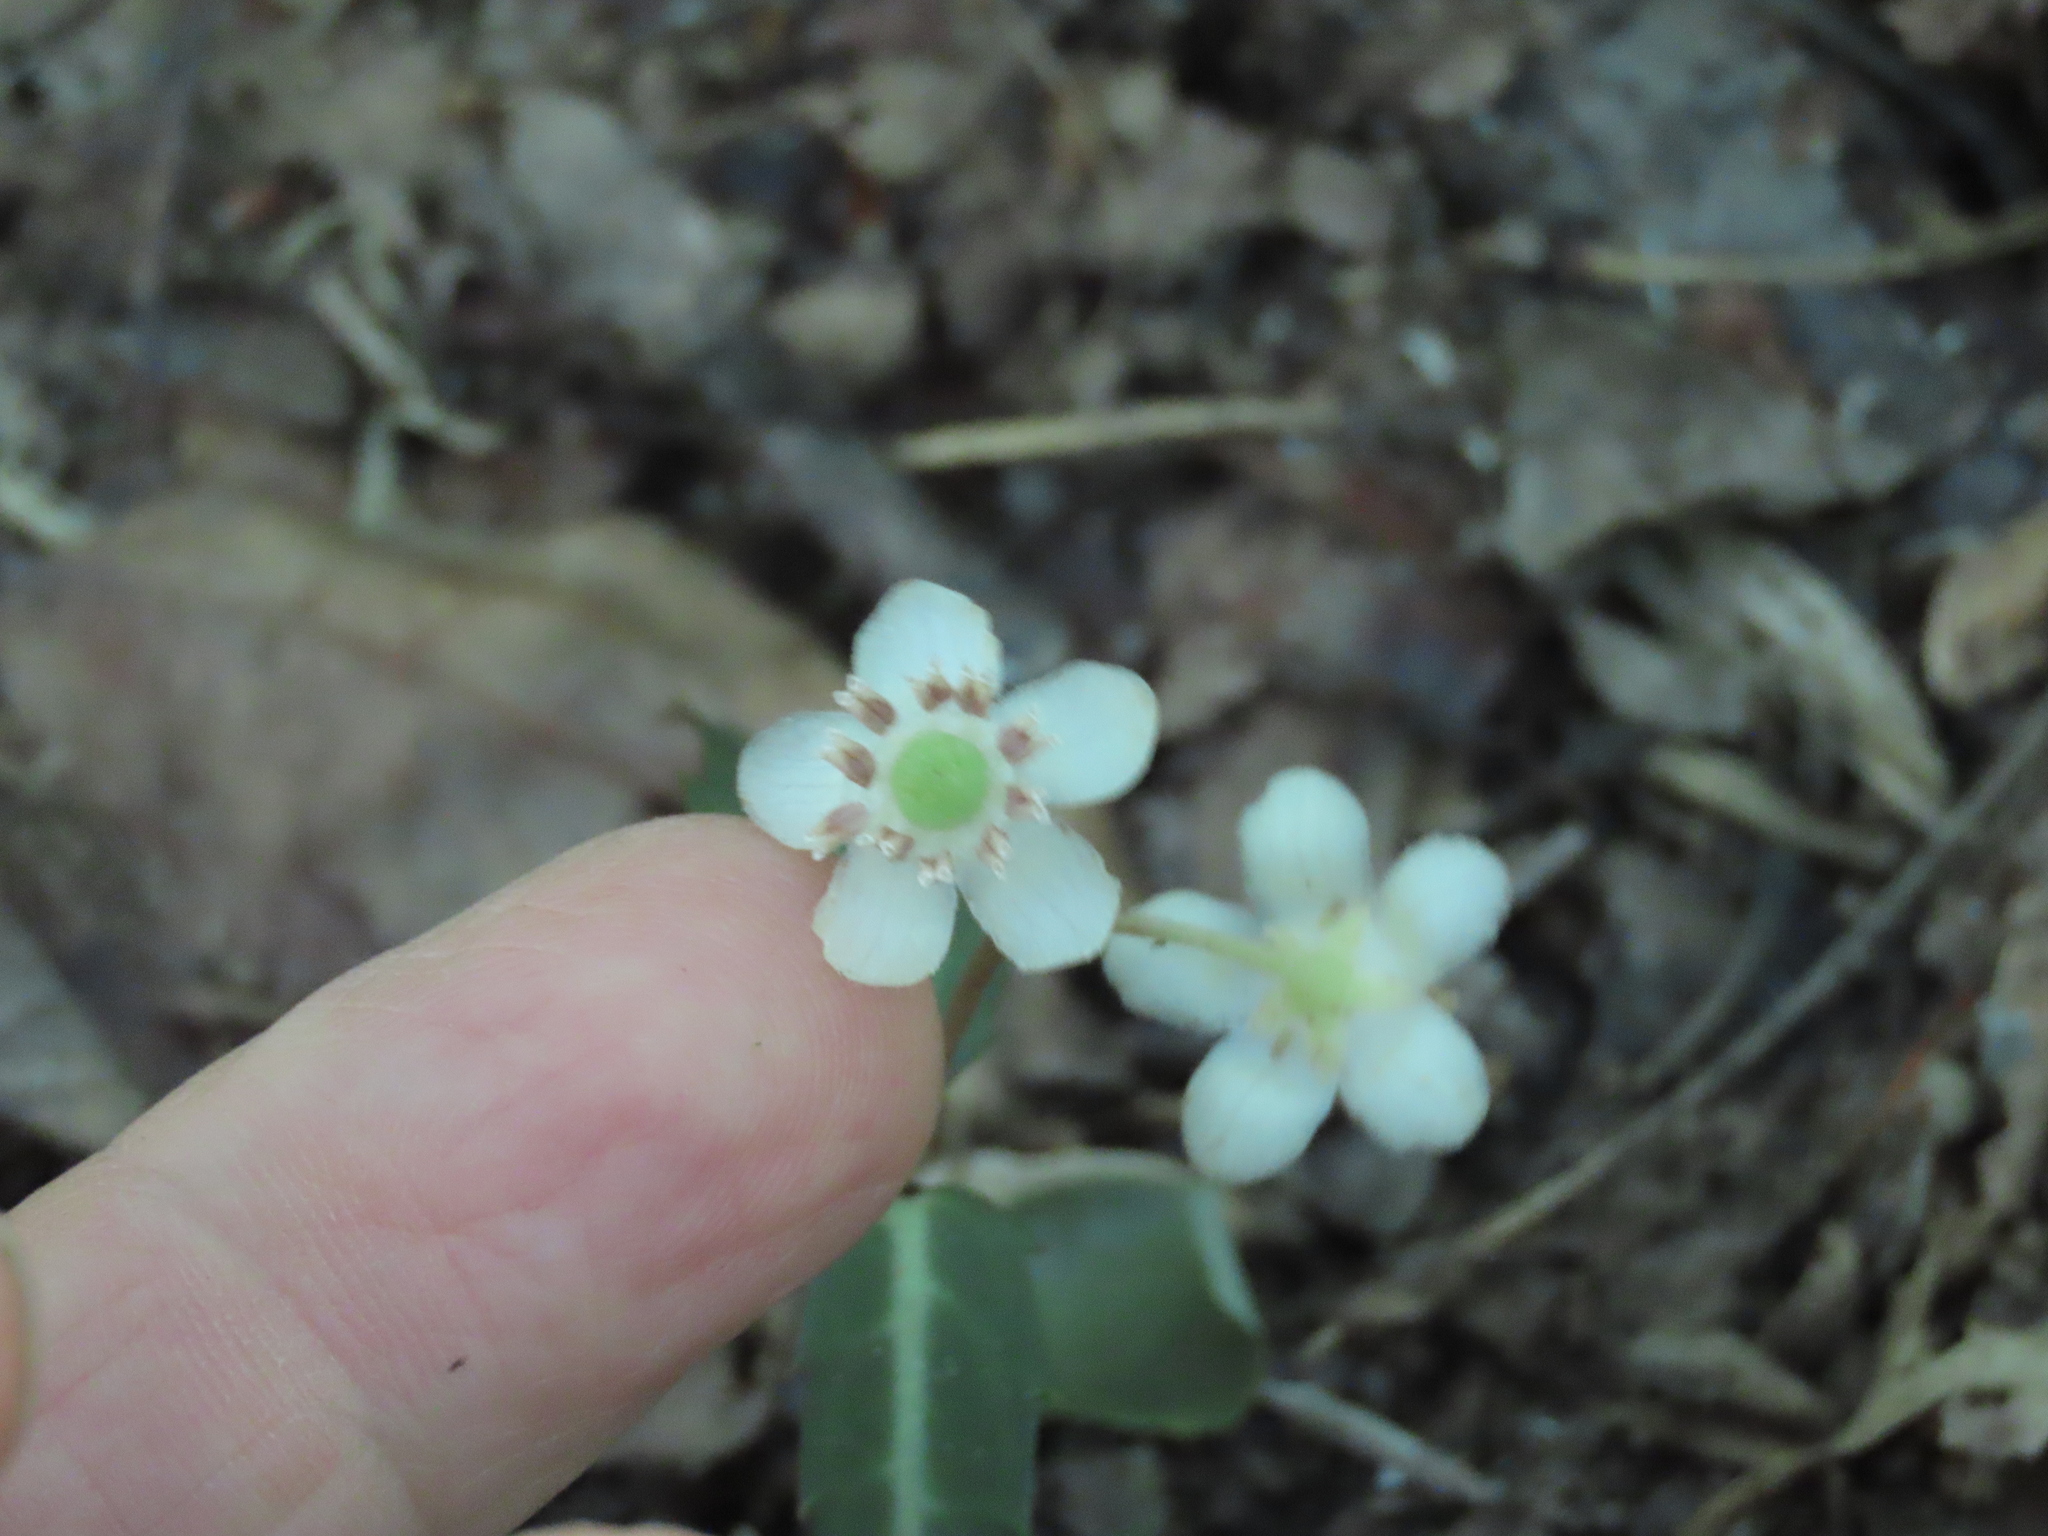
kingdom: Plantae
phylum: Tracheophyta
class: Magnoliopsida
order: Ericales
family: Ericaceae
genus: Chimaphila
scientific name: Chimaphila maculata
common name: Spotted pipsissewa
